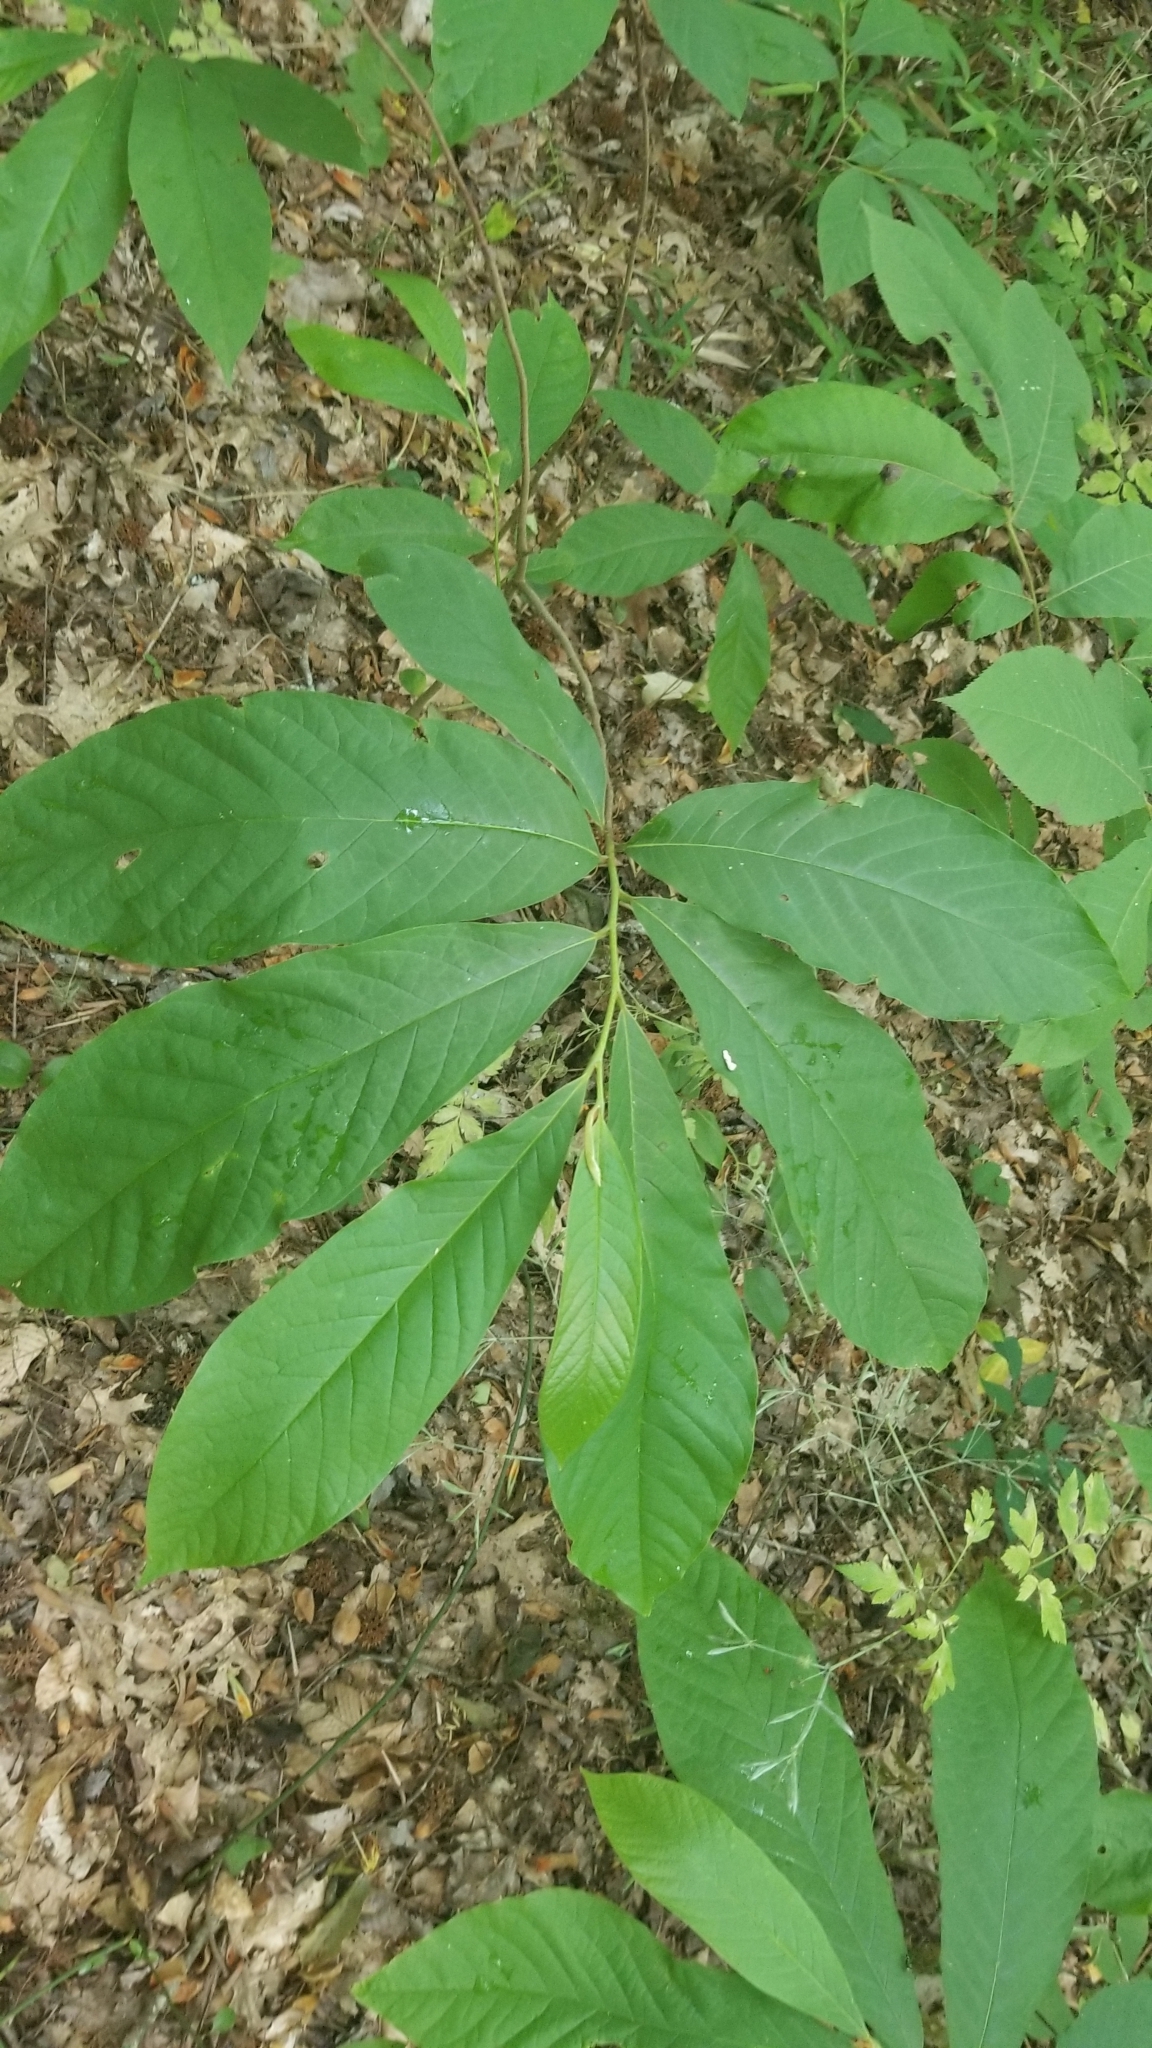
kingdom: Plantae
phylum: Tracheophyta
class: Magnoliopsida
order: Magnoliales
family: Annonaceae
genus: Asimina
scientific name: Asimina triloba
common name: Dog-banana
